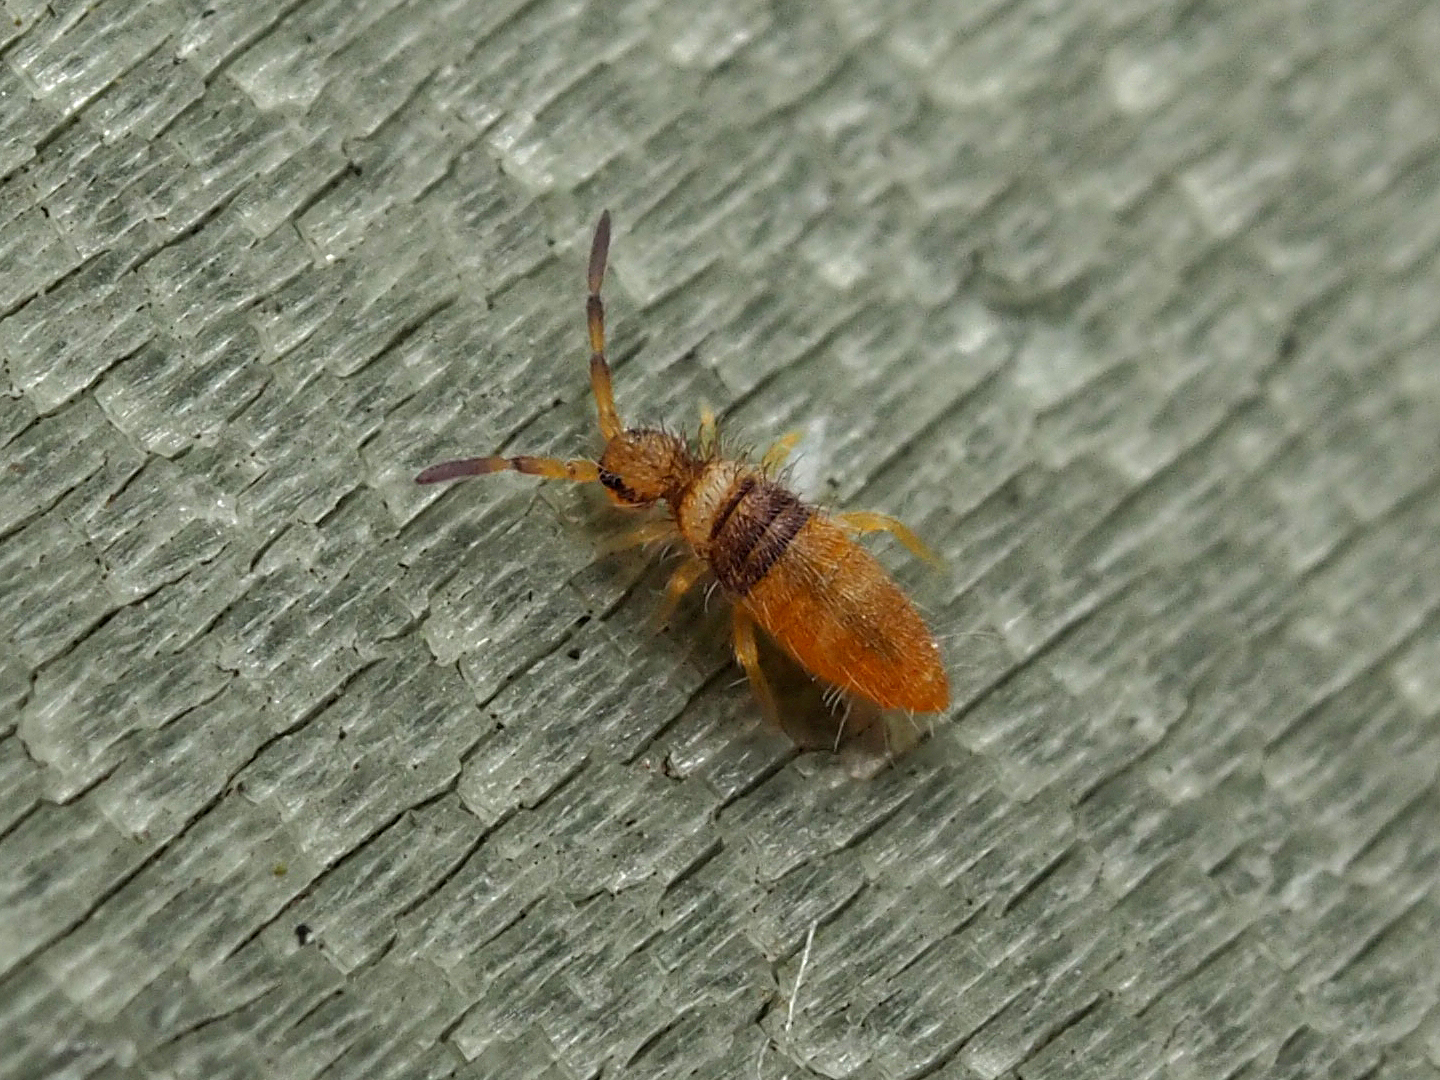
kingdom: Animalia
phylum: Arthropoda
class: Collembola
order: Entomobryomorpha
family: Entomobryidae
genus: Entomobrya
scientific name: Entomobrya nigrocincta
